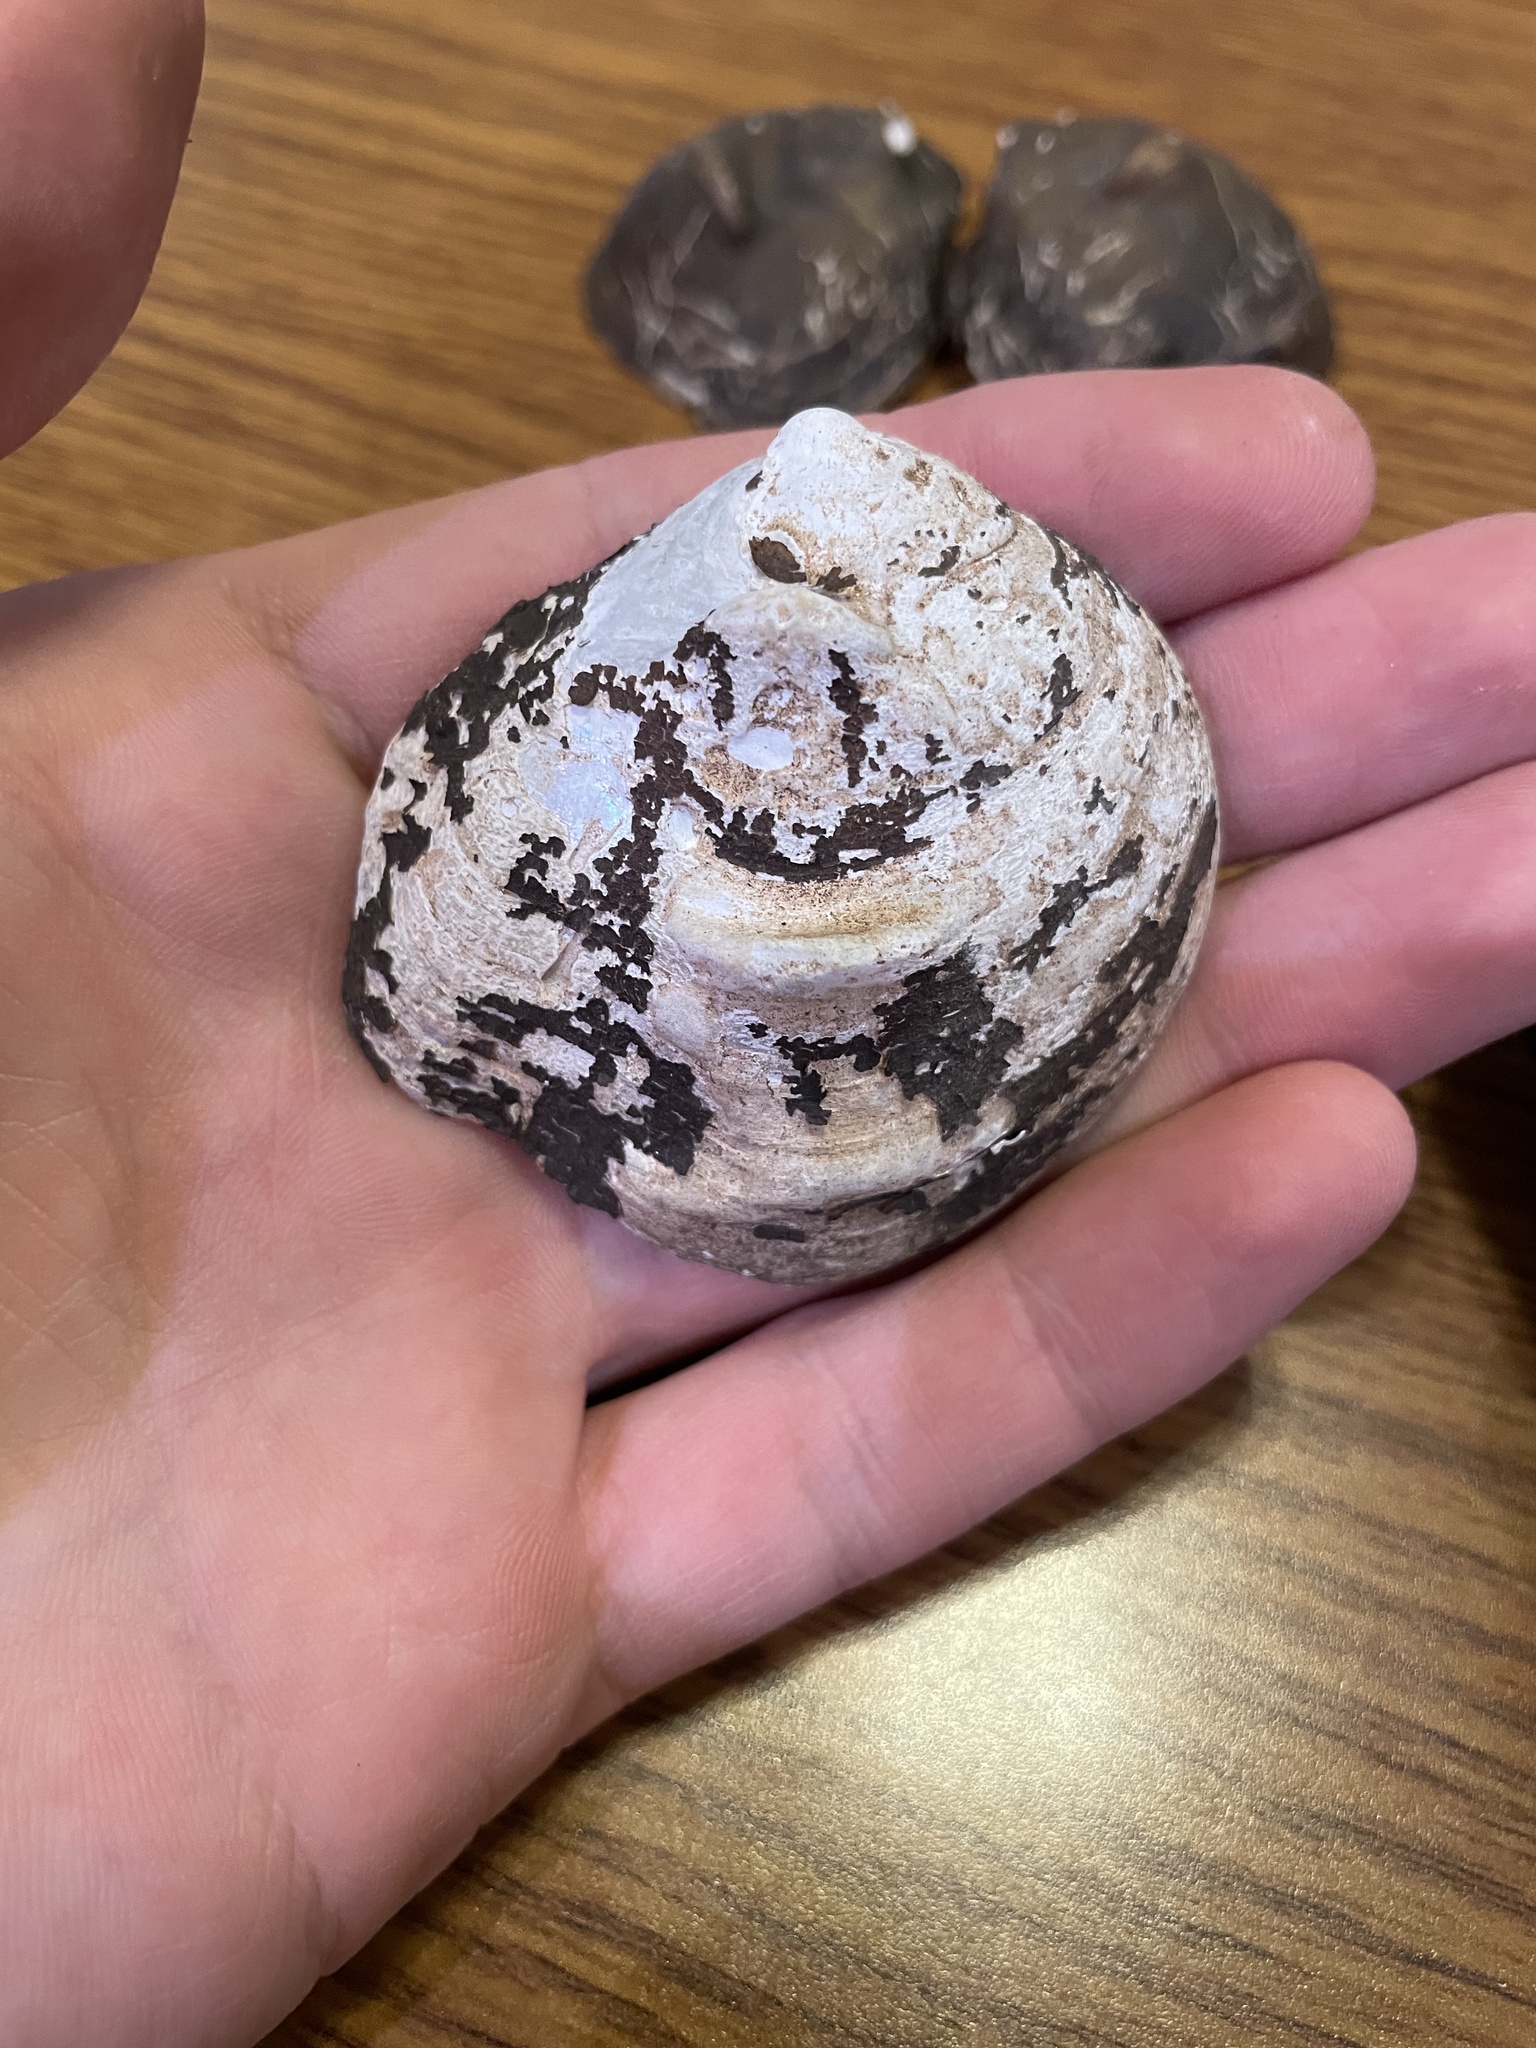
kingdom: Animalia
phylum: Mollusca
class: Bivalvia
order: Unionida
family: Unionidae
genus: Obliquaria
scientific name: Obliquaria reflexa
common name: Threehorn wartyback
